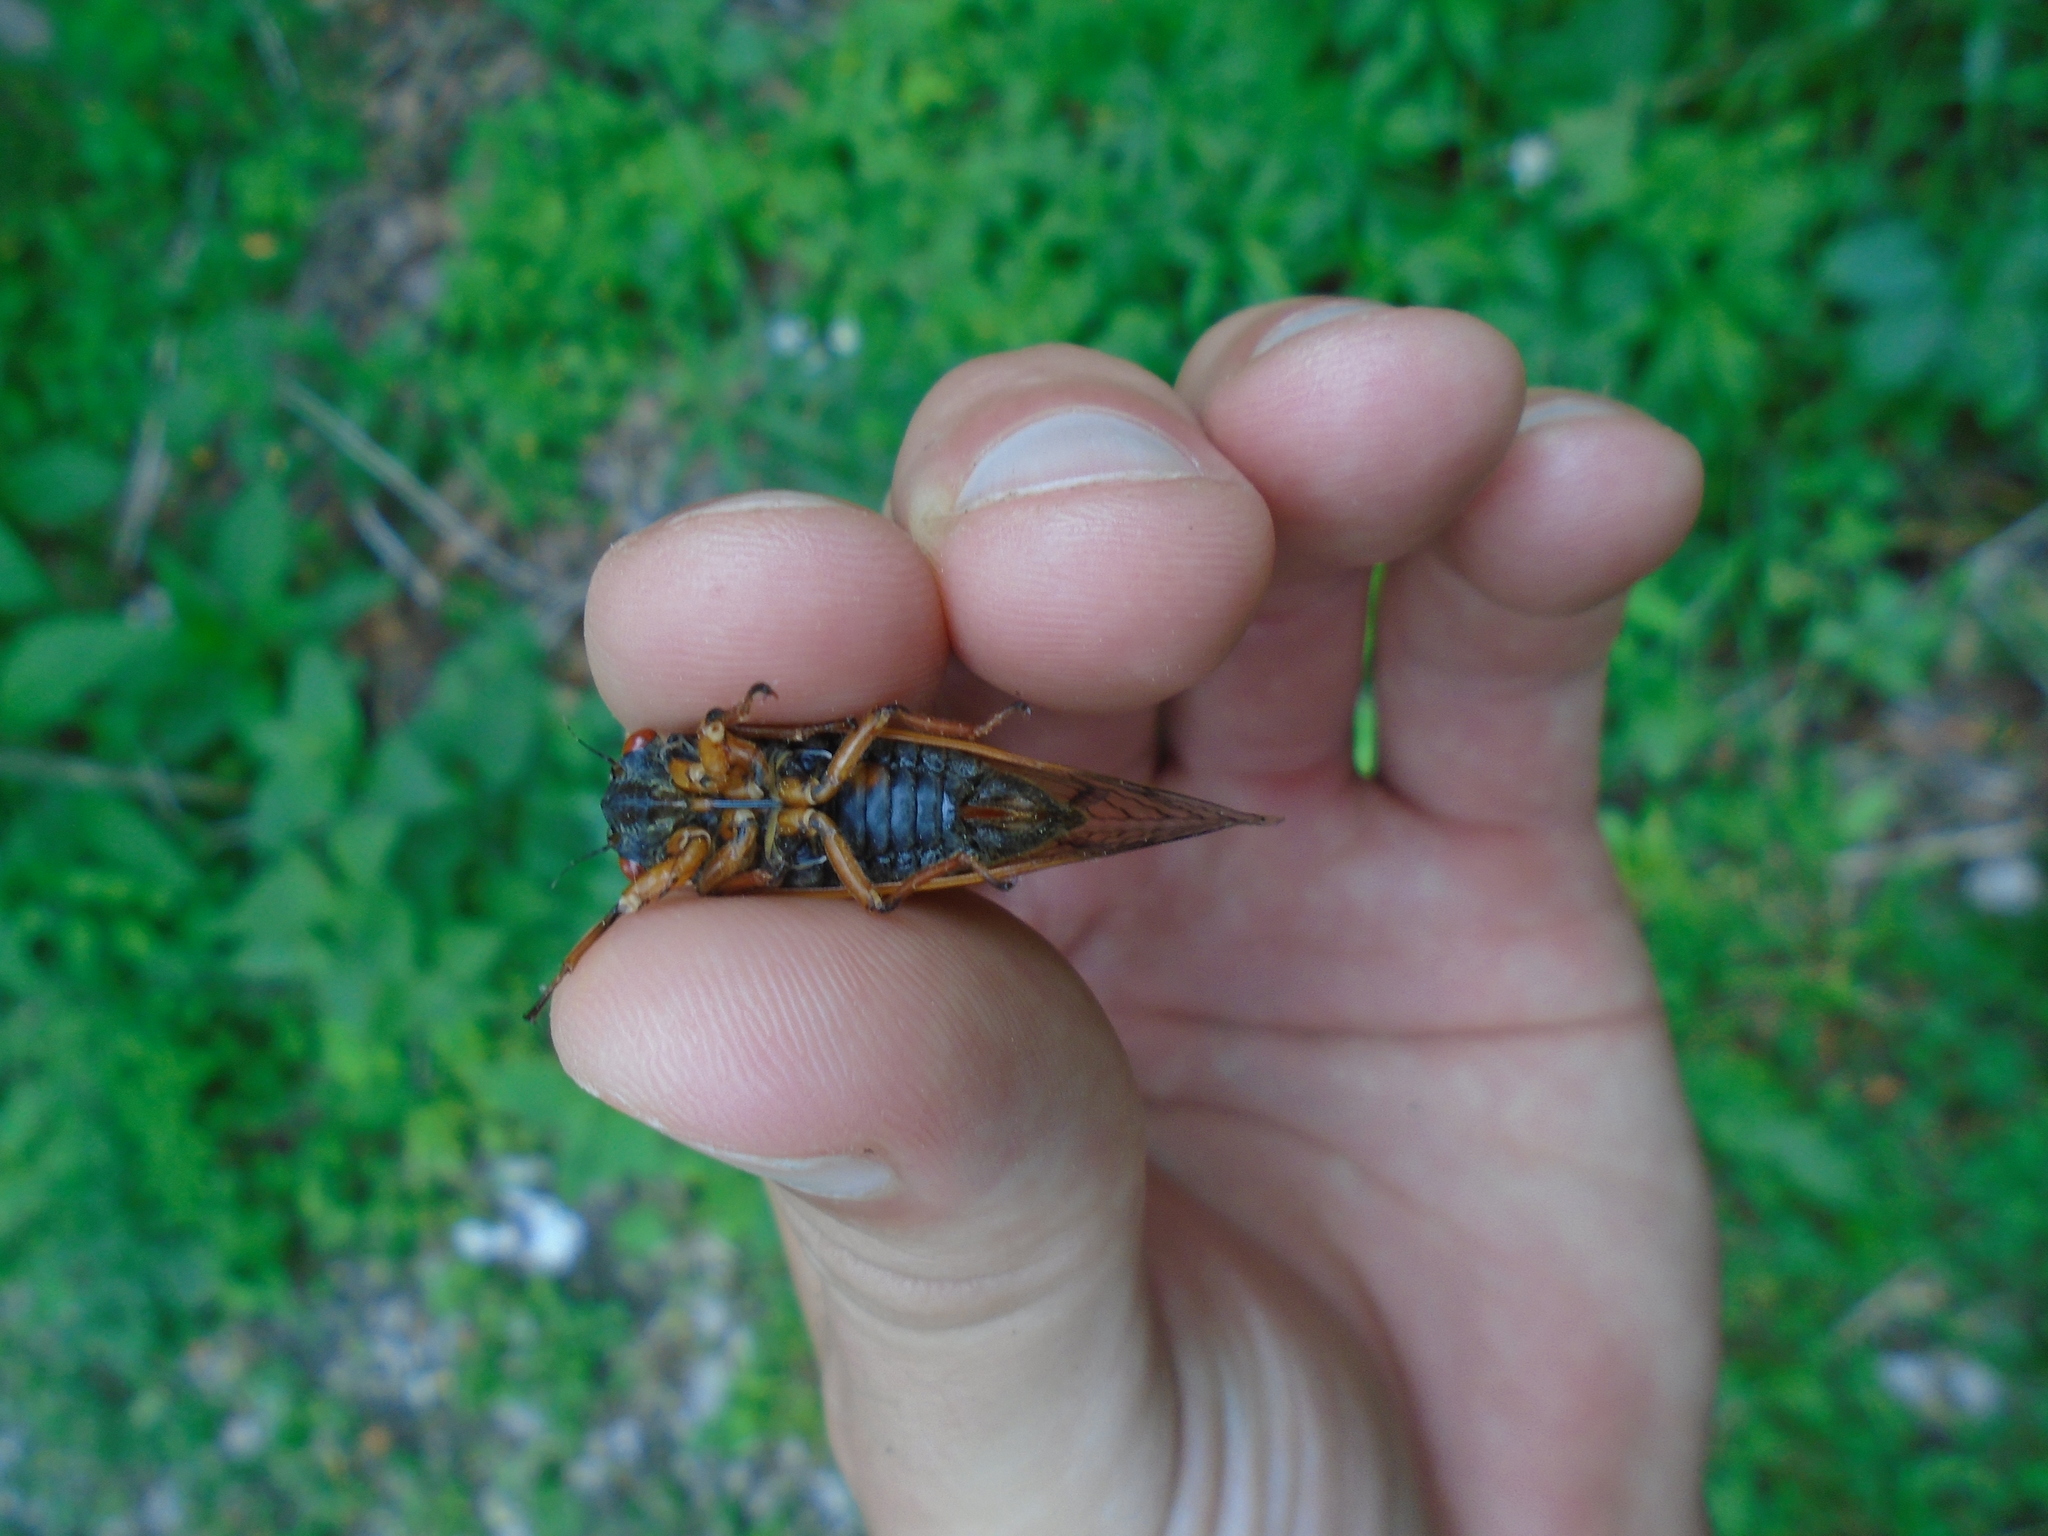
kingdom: Animalia
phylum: Arthropoda
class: Insecta
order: Hemiptera
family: Cicadidae
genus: Magicicada
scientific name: Magicicada cassini
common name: Cassin's 17-year cicada
